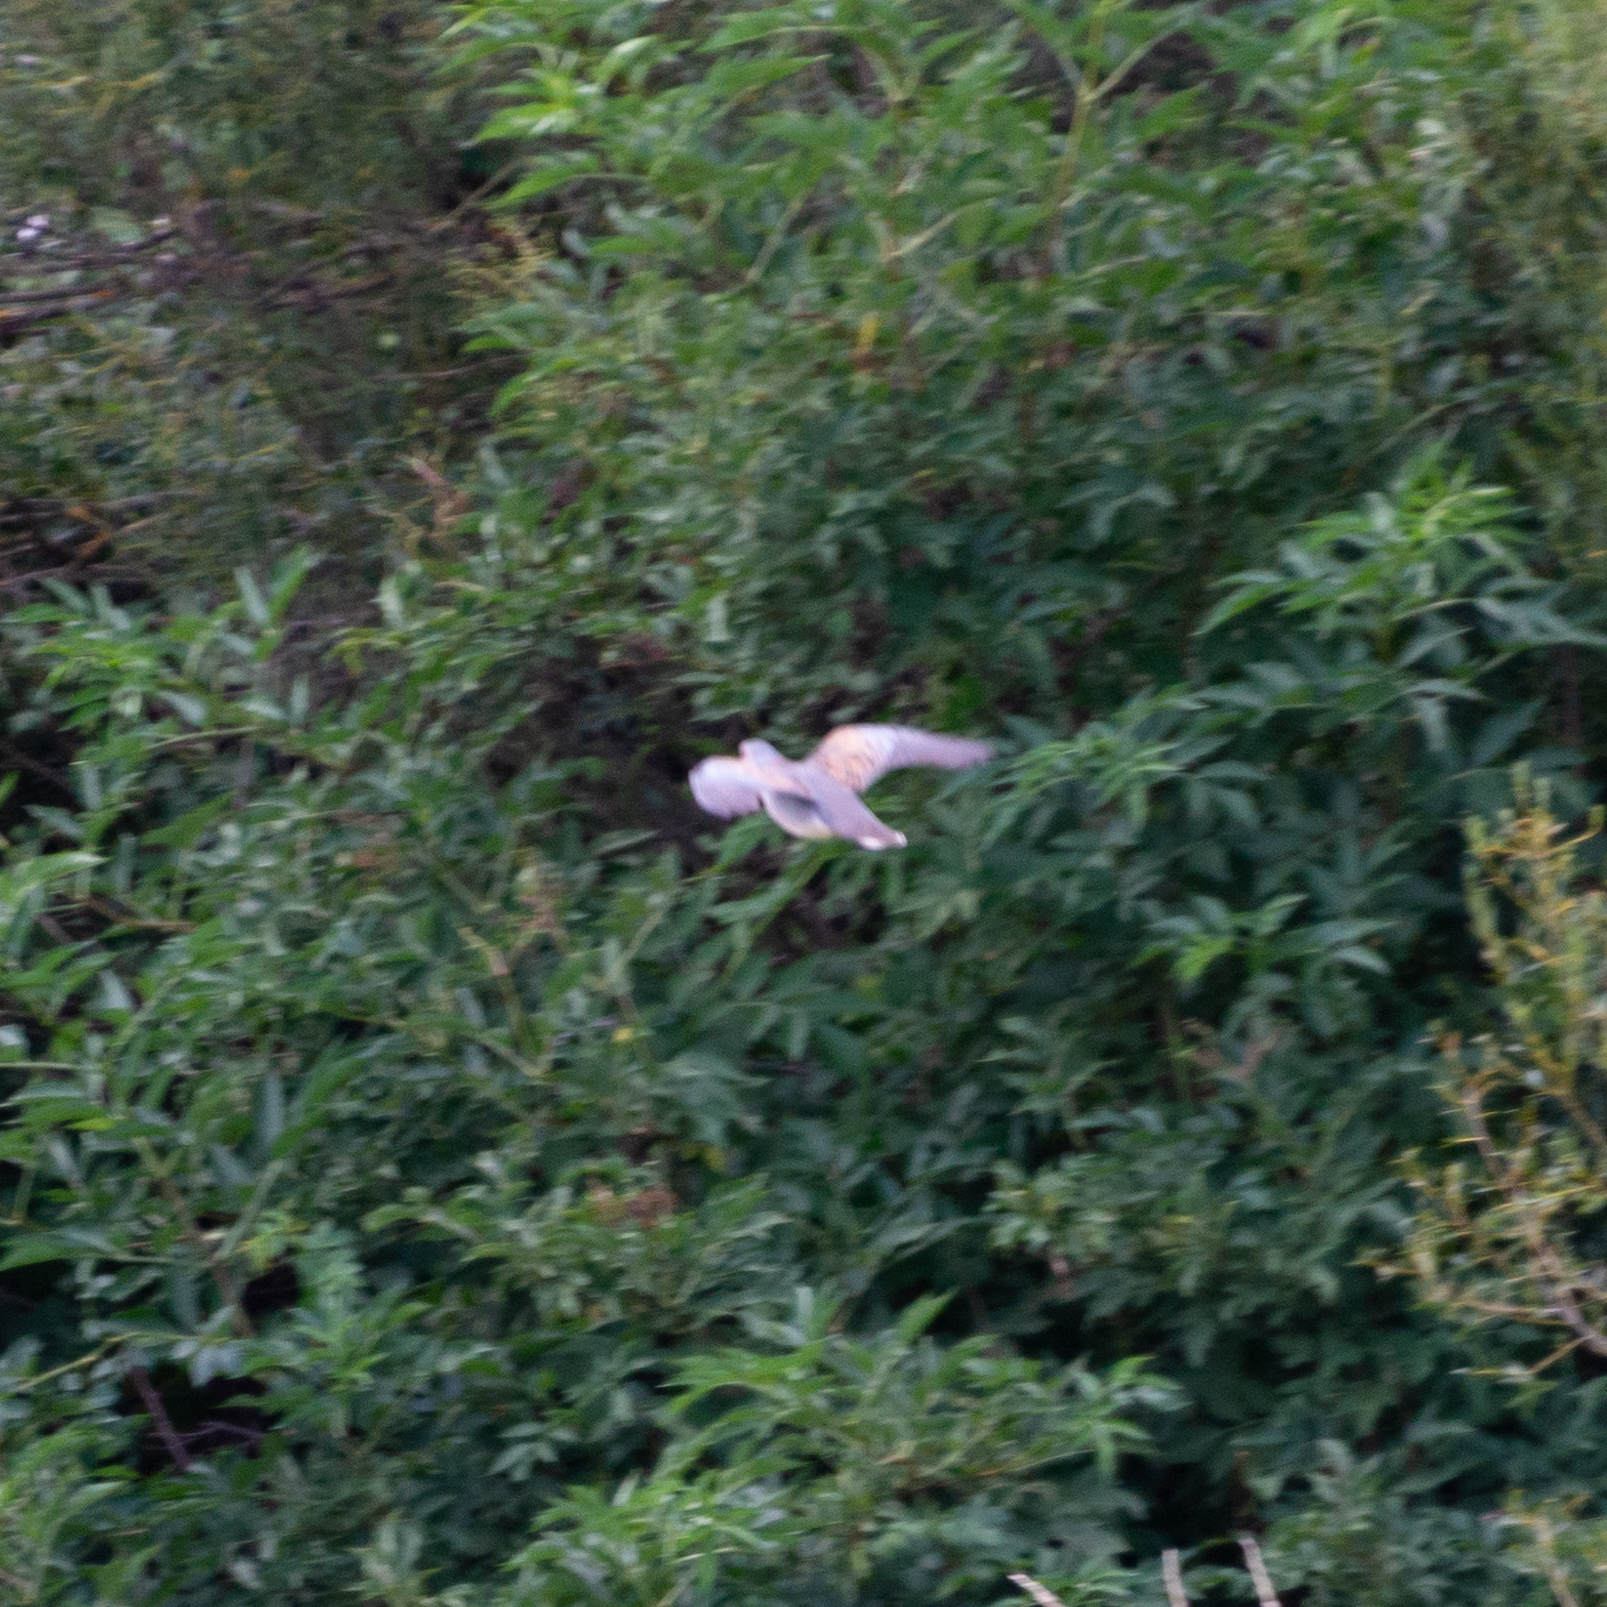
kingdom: Animalia
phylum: Chordata
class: Aves
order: Columbiformes
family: Columbidae
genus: Streptopelia
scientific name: Streptopelia turtur
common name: European turtle dove
